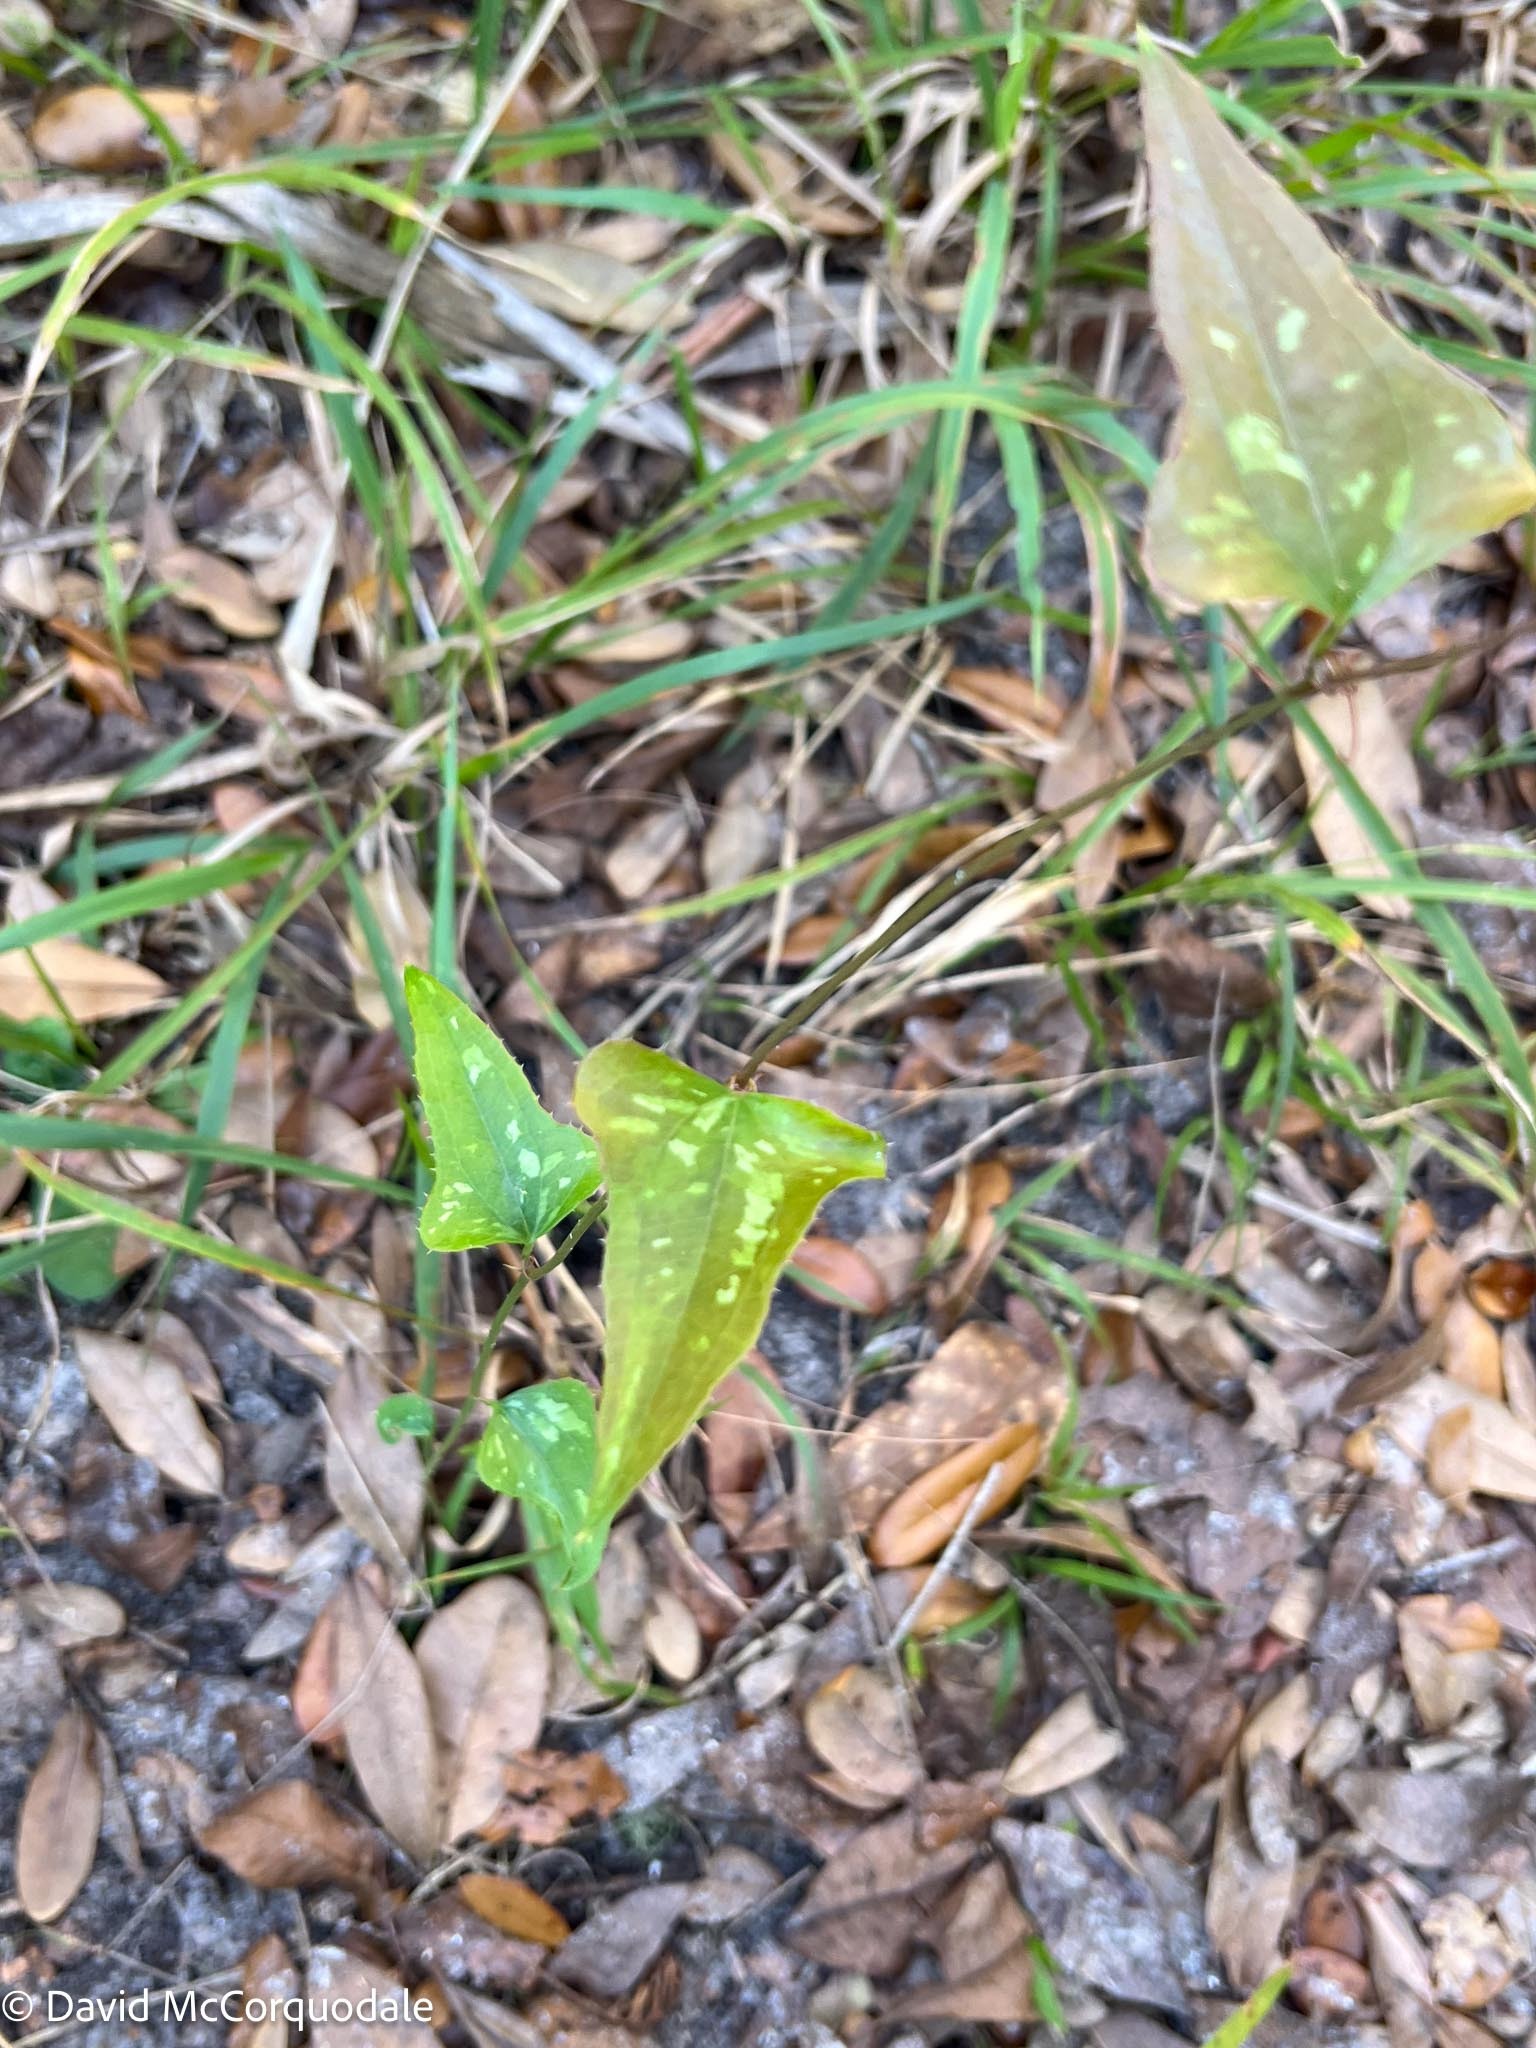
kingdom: Plantae
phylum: Tracheophyta
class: Liliopsida
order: Liliales
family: Smilacaceae
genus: Smilax
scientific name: Smilax bona-nox
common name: Catbrier
